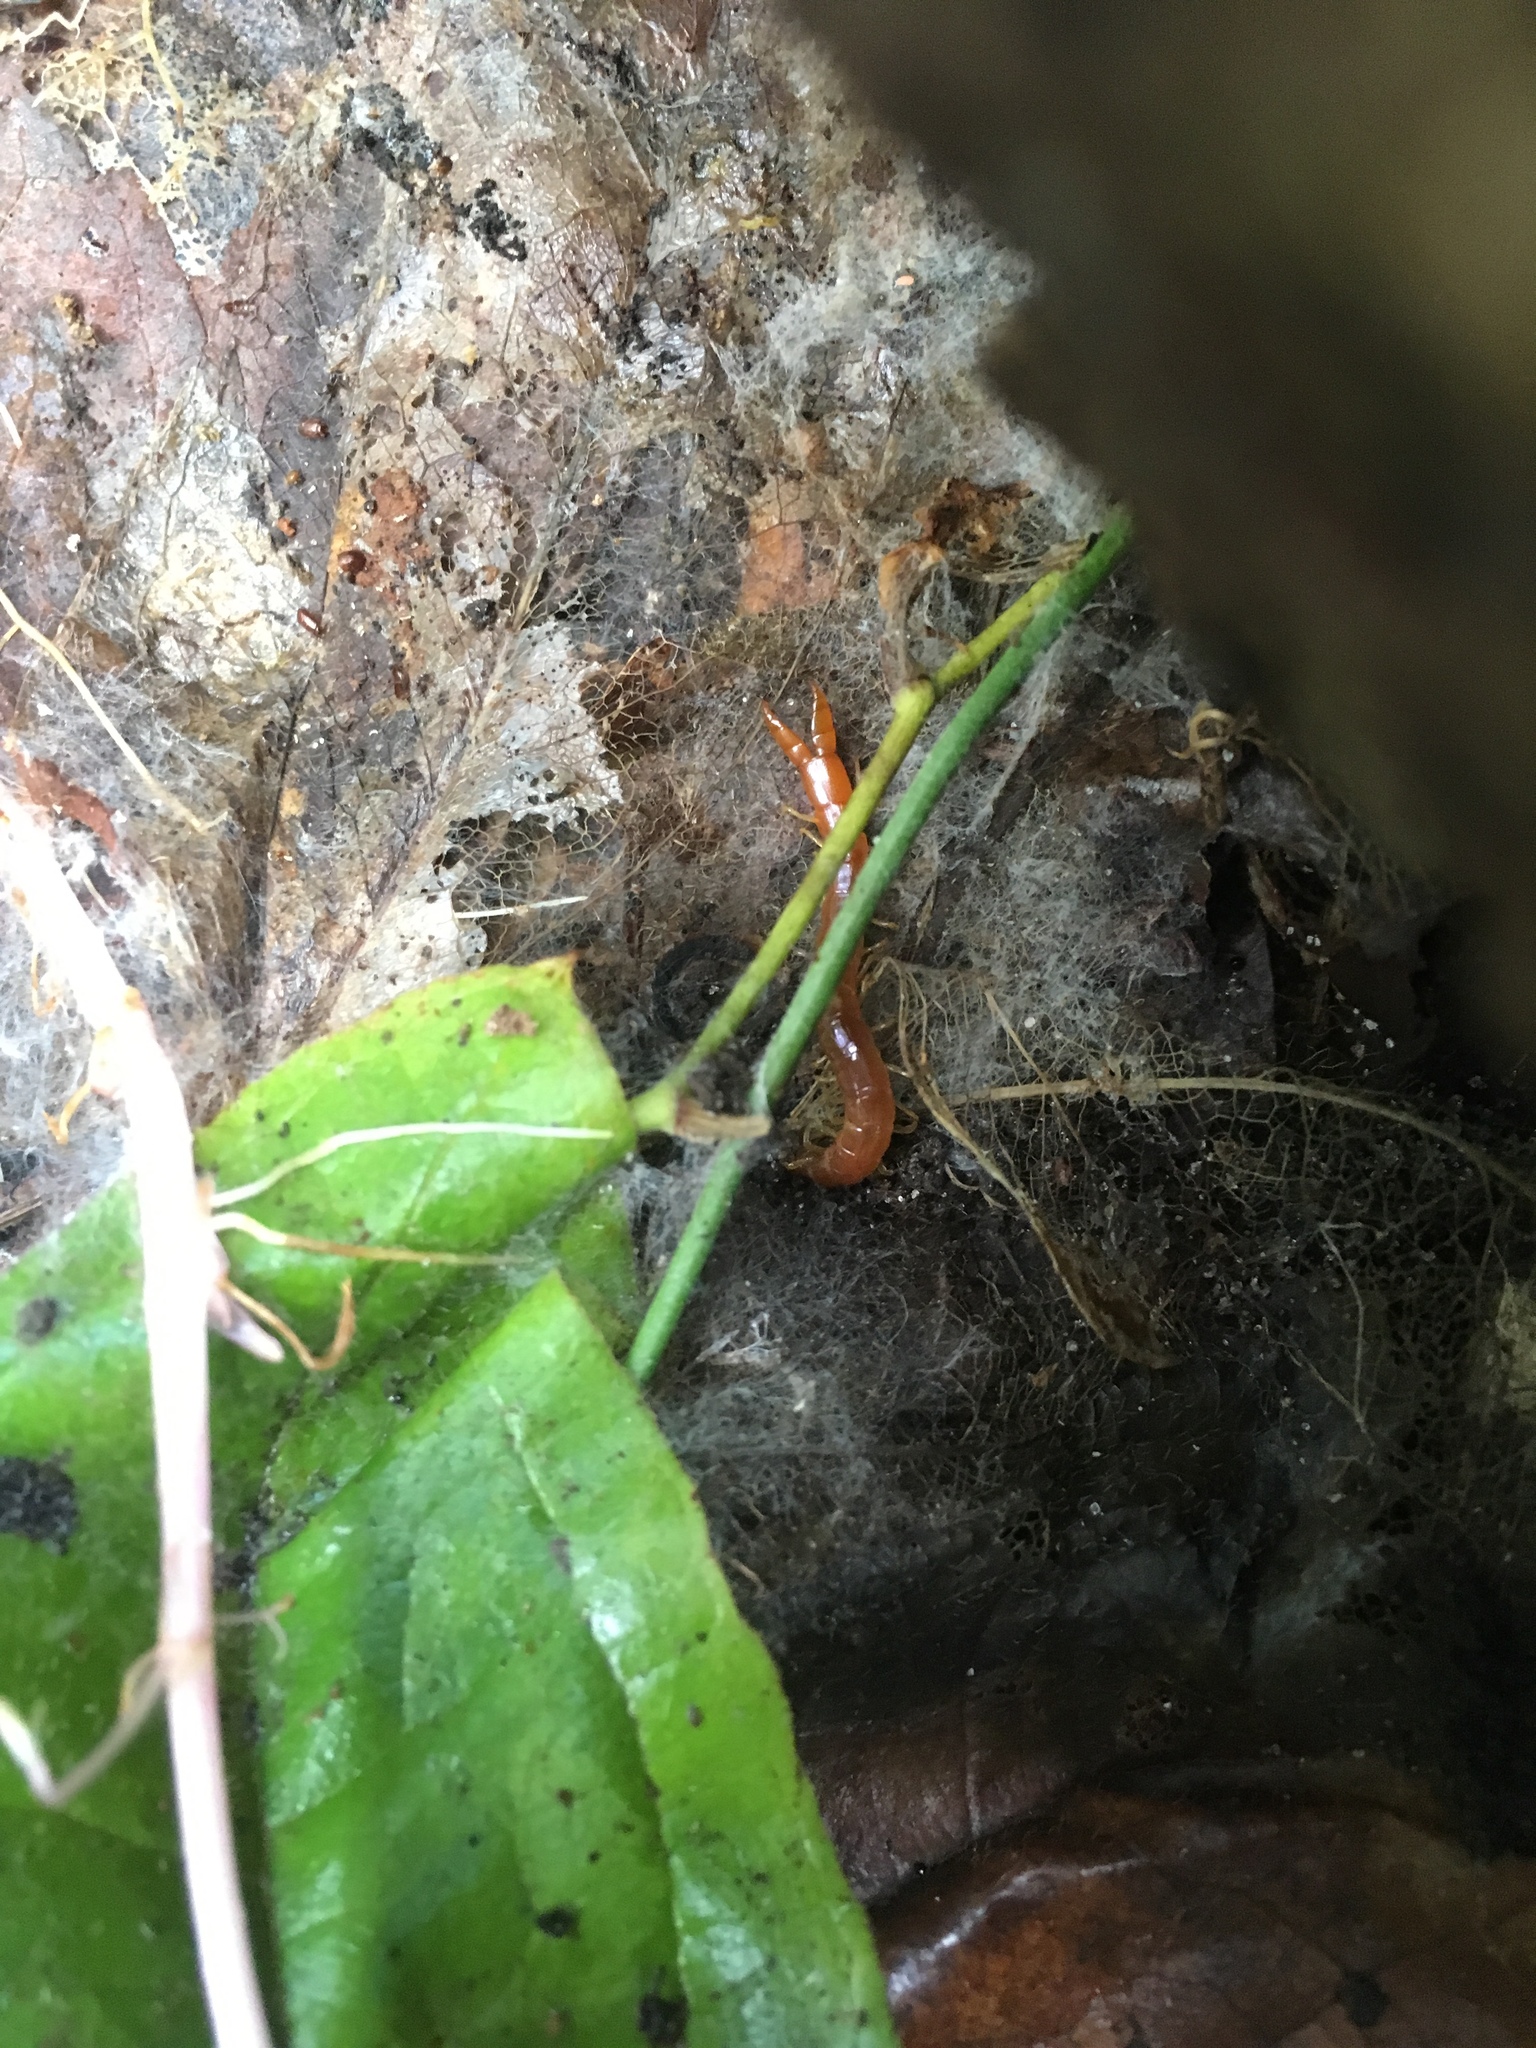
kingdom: Animalia
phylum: Arthropoda
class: Chilopoda
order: Scolopendromorpha
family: Cryptopidae
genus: Theatops
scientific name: Theatops posticus
